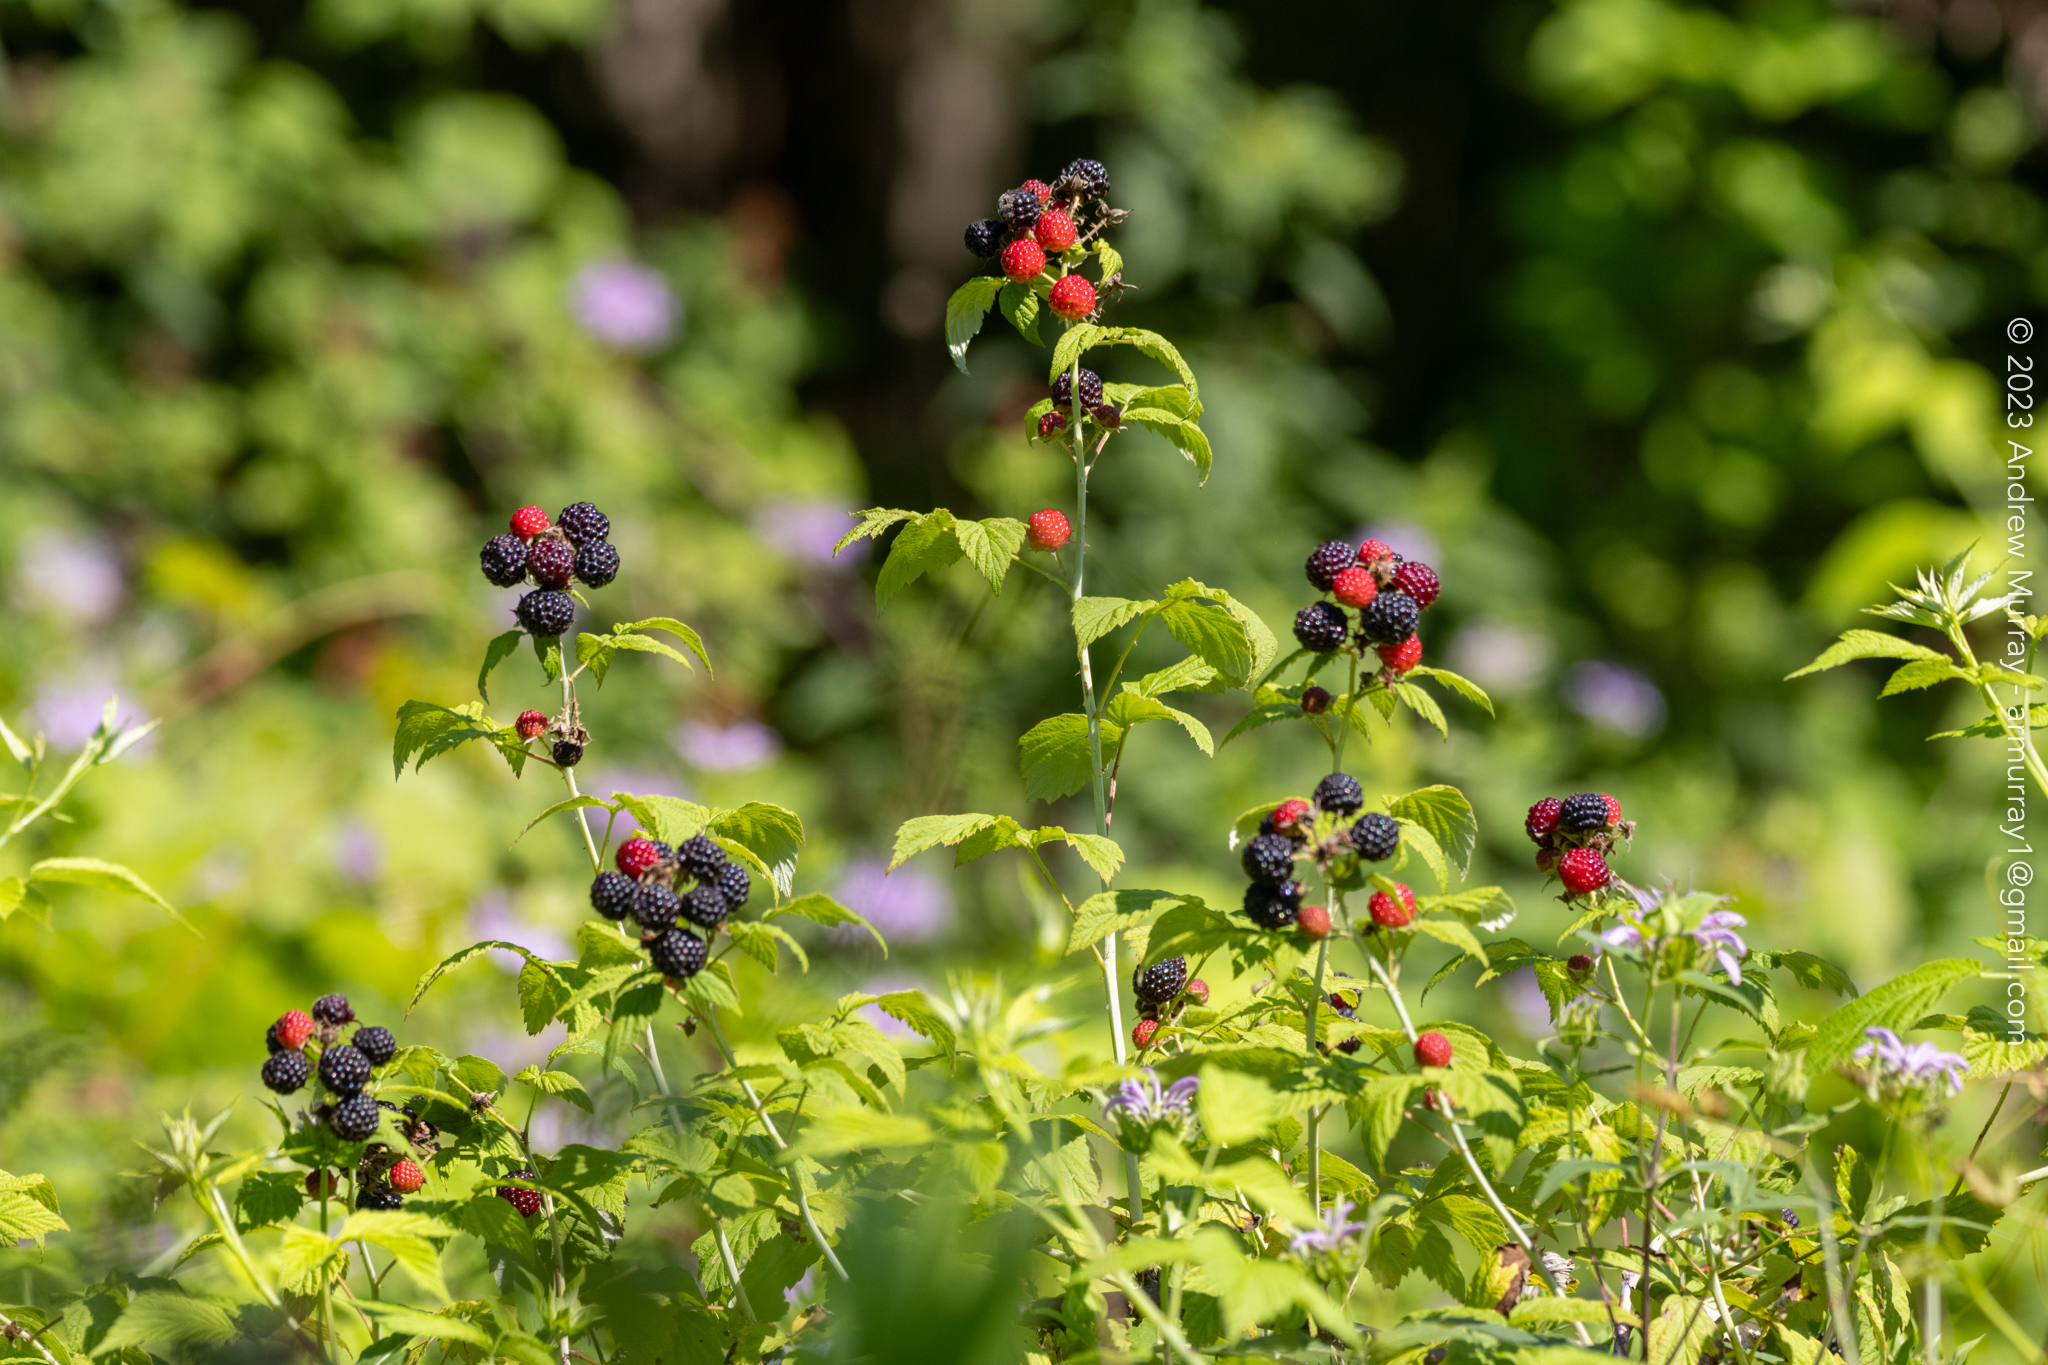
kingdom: Plantae
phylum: Tracheophyta
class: Magnoliopsida
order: Rosales
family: Rosaceae
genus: Rubus
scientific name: Rubus occidentalis
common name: Black raspberry
